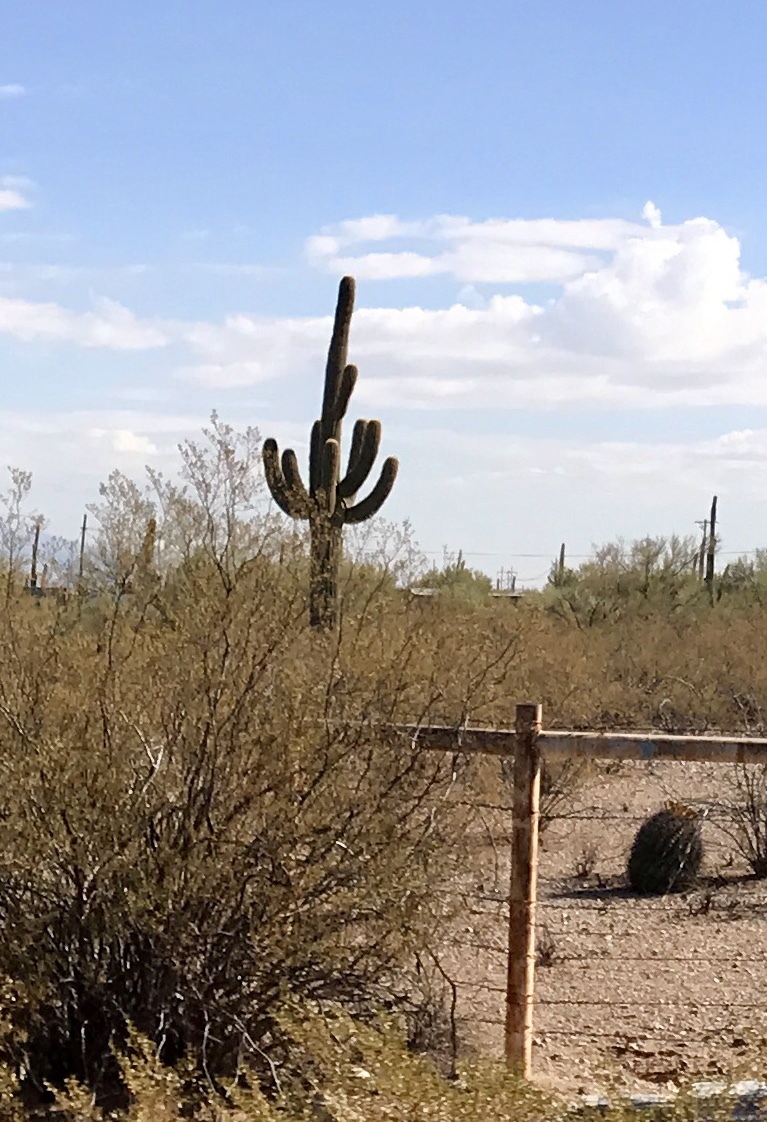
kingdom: Plantae
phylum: Tracheophyta
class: Magnoliopsida
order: Caryophyllales
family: Cactaceae
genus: Carnegiea
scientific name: Carnegiea gigantea
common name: Saguaro
